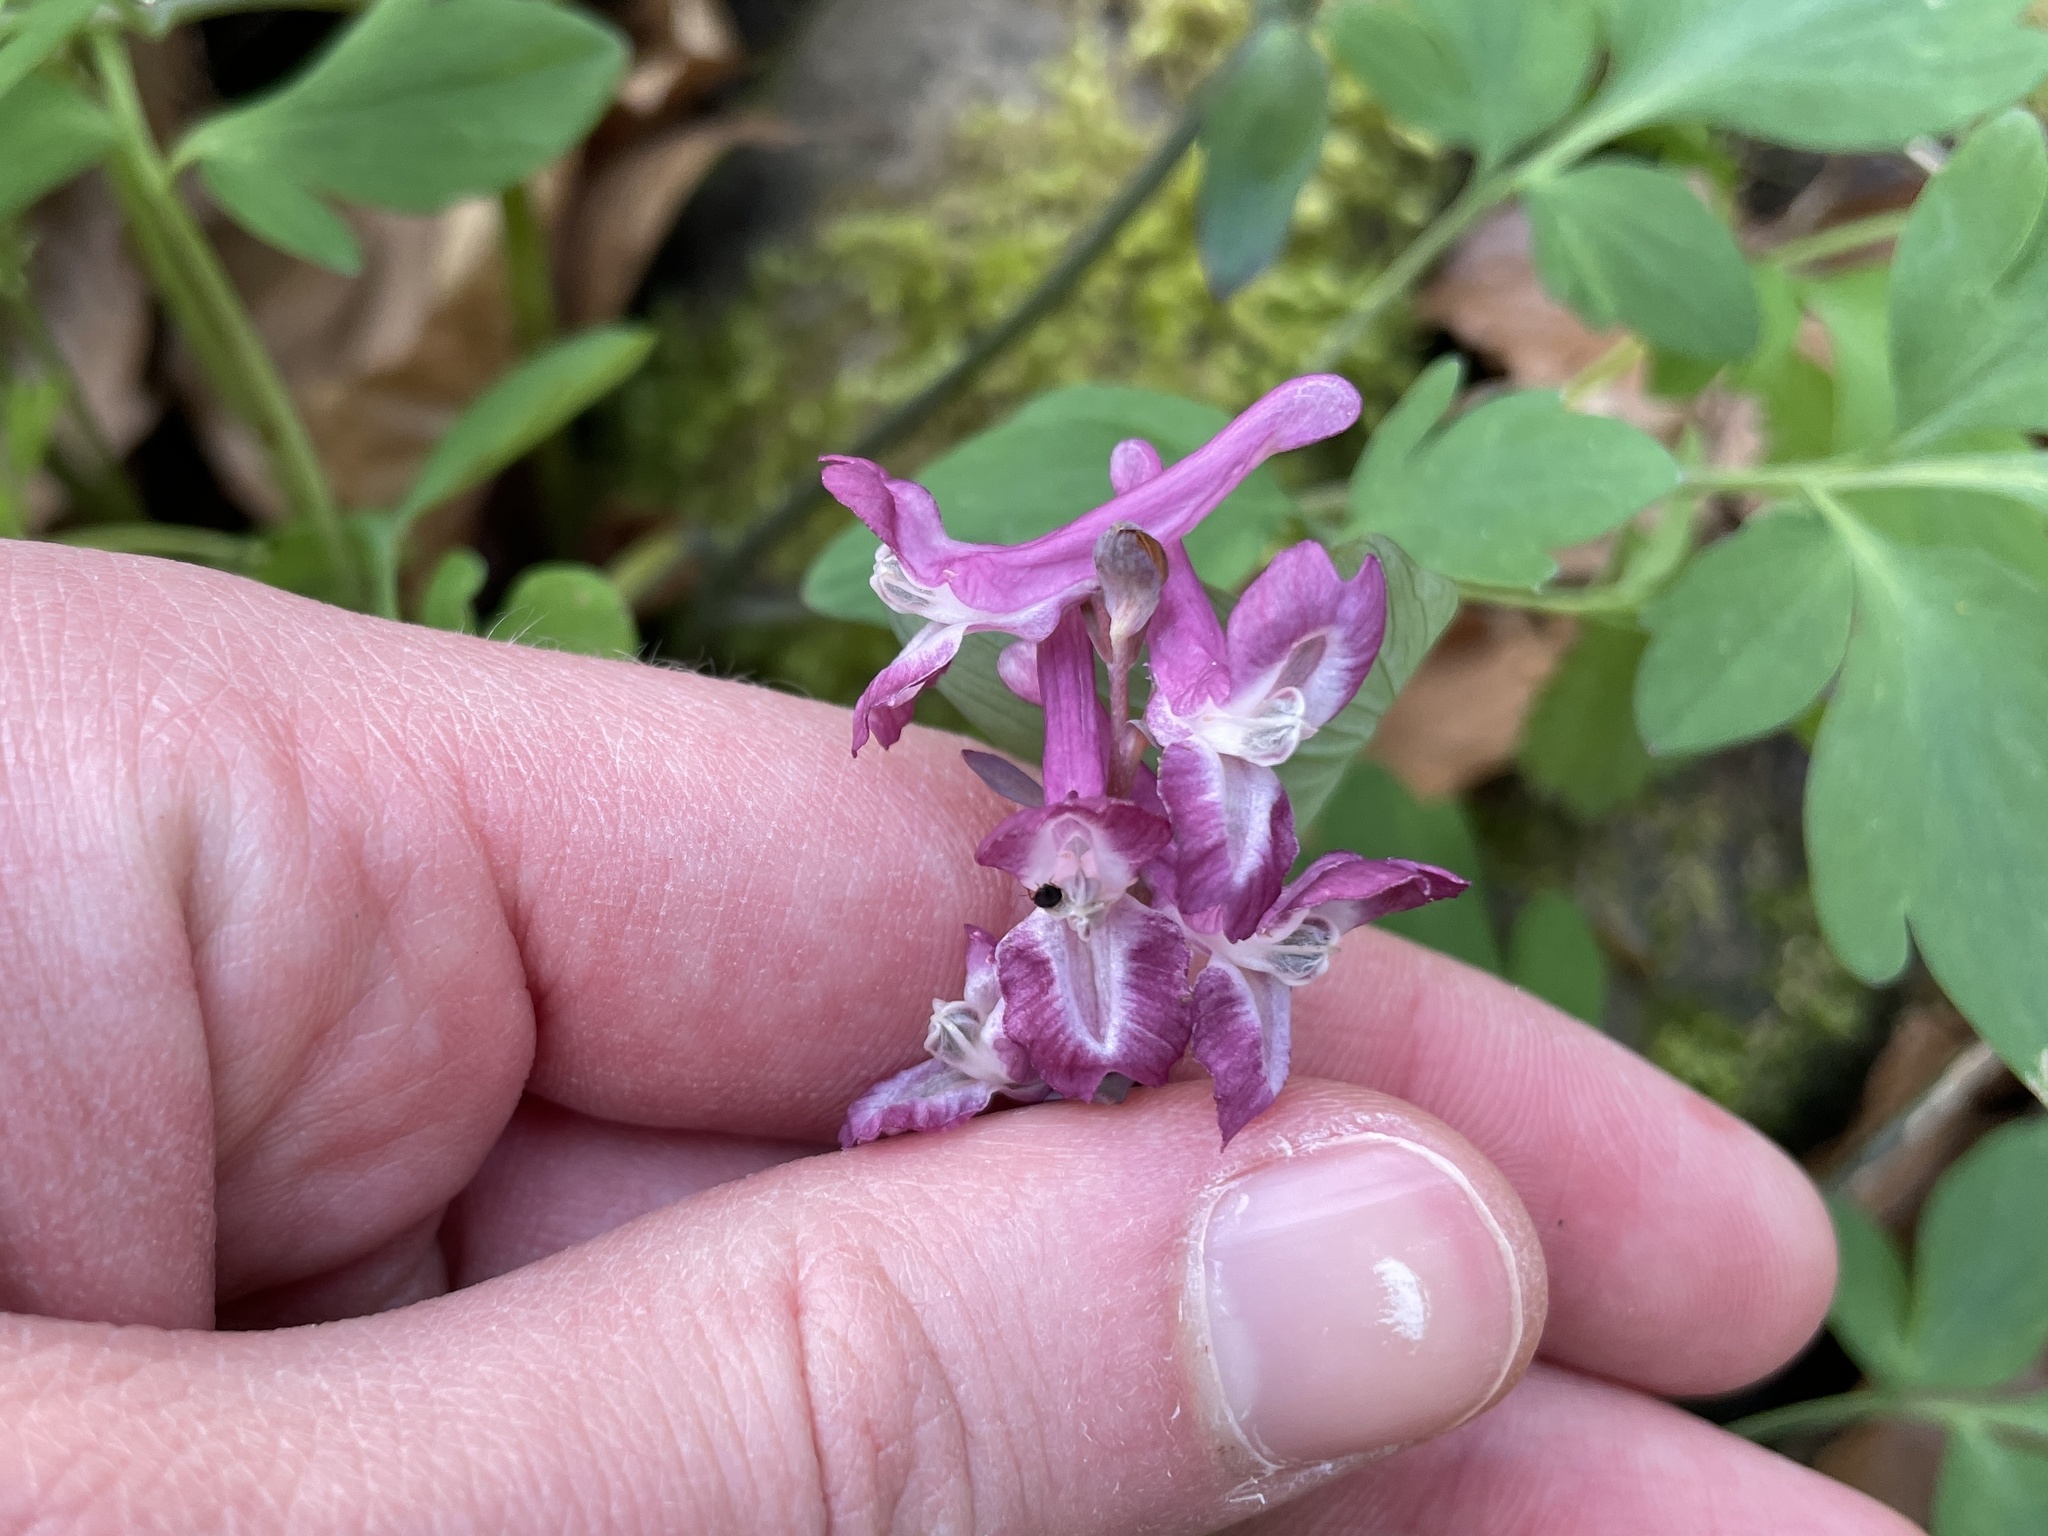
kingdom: Plantae
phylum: Tracheophyta
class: Magnoliopsida
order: Ranunculales
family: Papaveraceae
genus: Corydalis
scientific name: Corydalis cava
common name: Hollowroot
